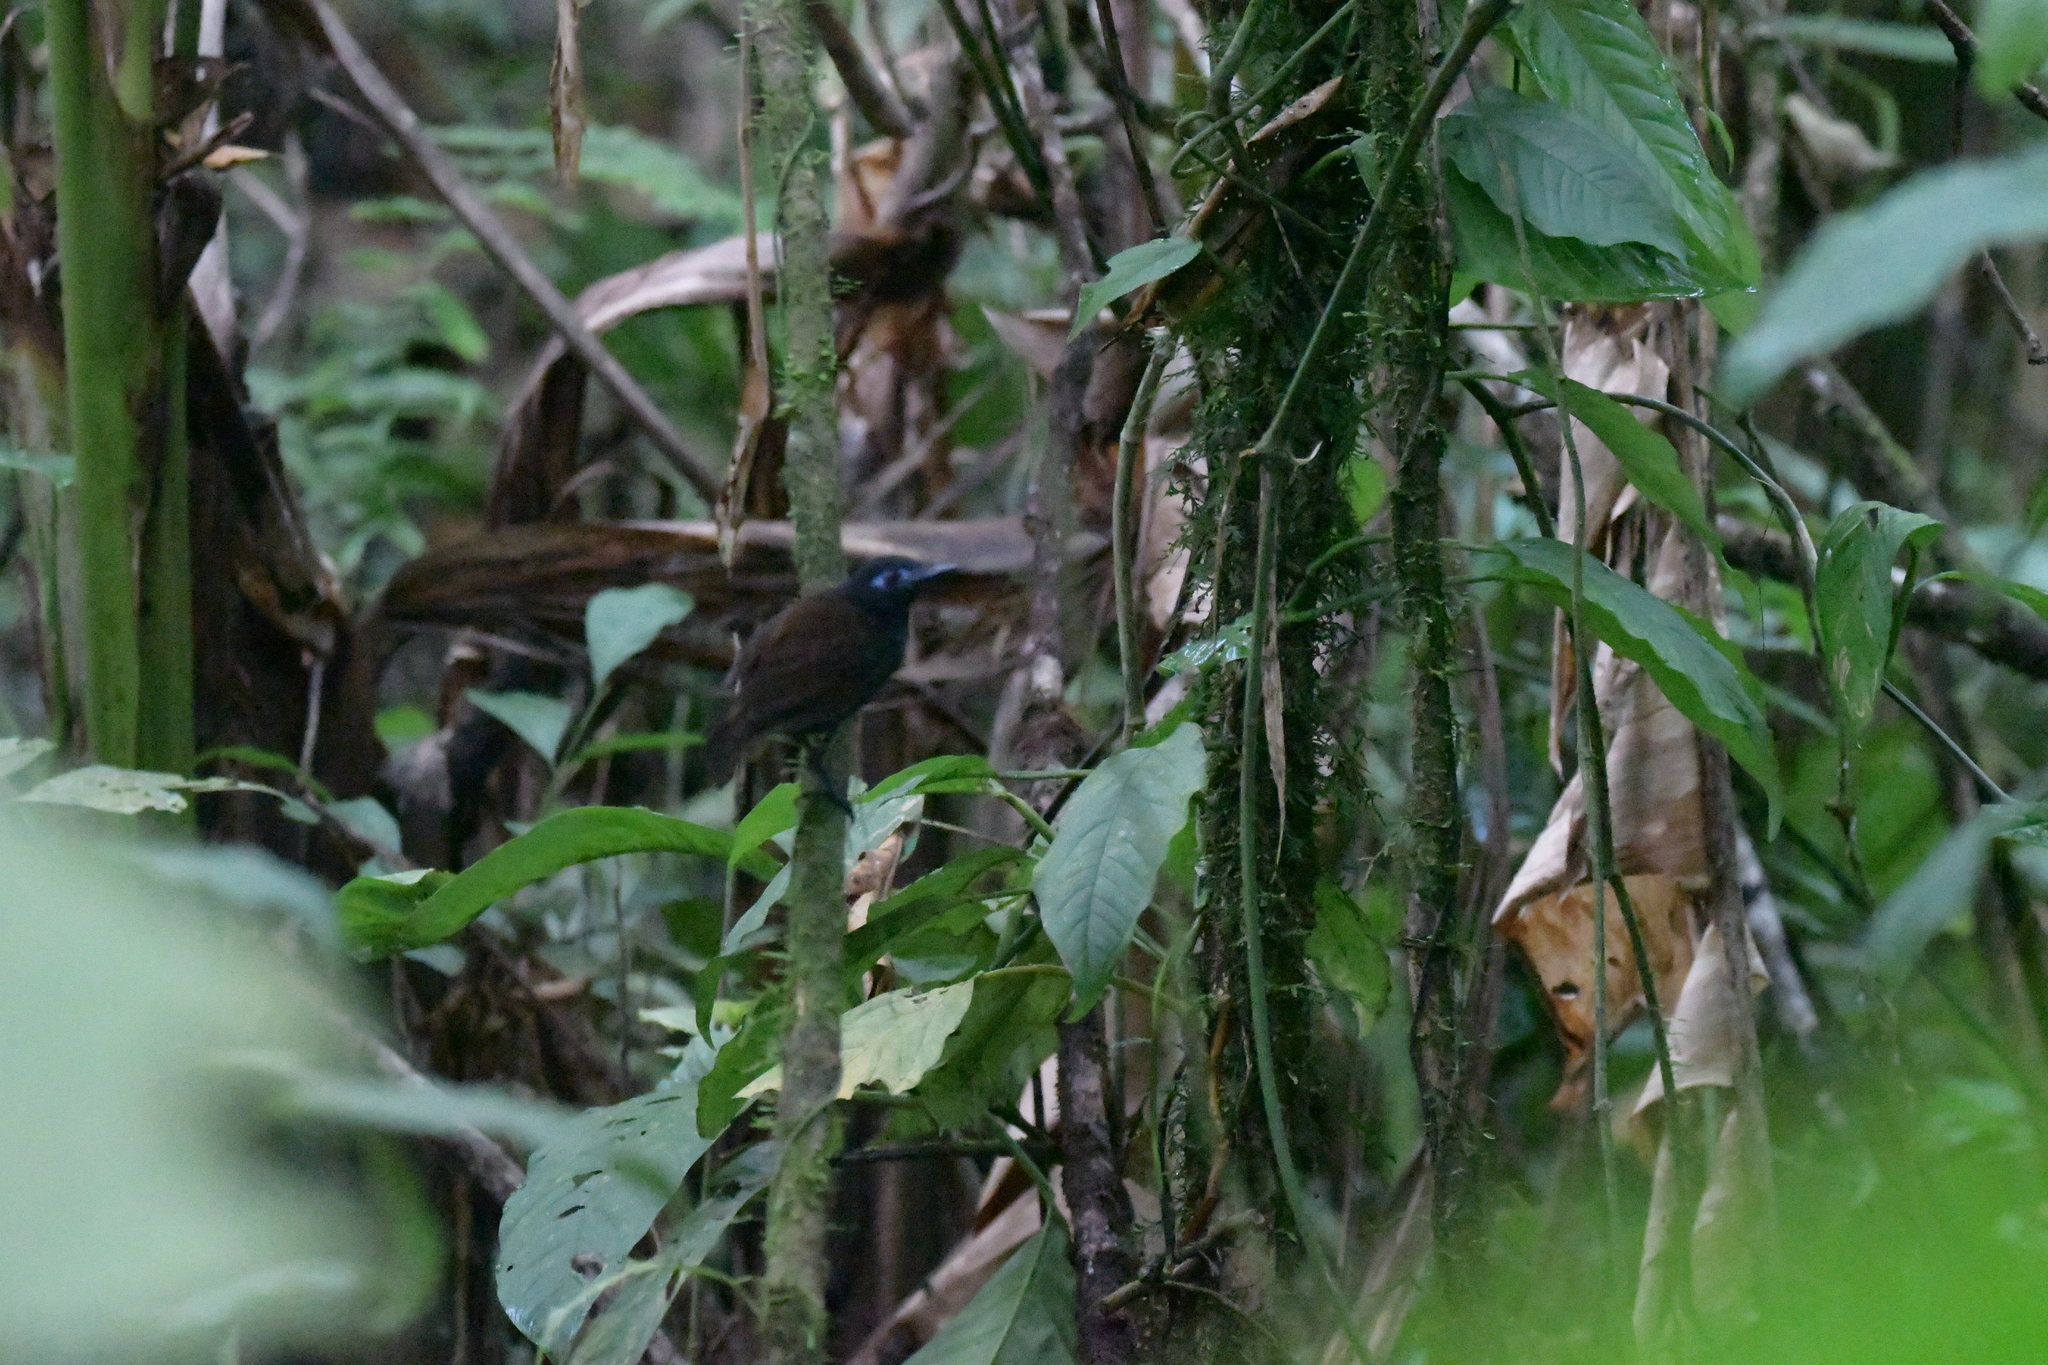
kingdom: Animalia
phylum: Chordata
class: Aves
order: Passeriformes
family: Thamnophilidae
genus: Myrmeciza
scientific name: Myrmeciza exsul
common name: Chestnut-backed antbird
